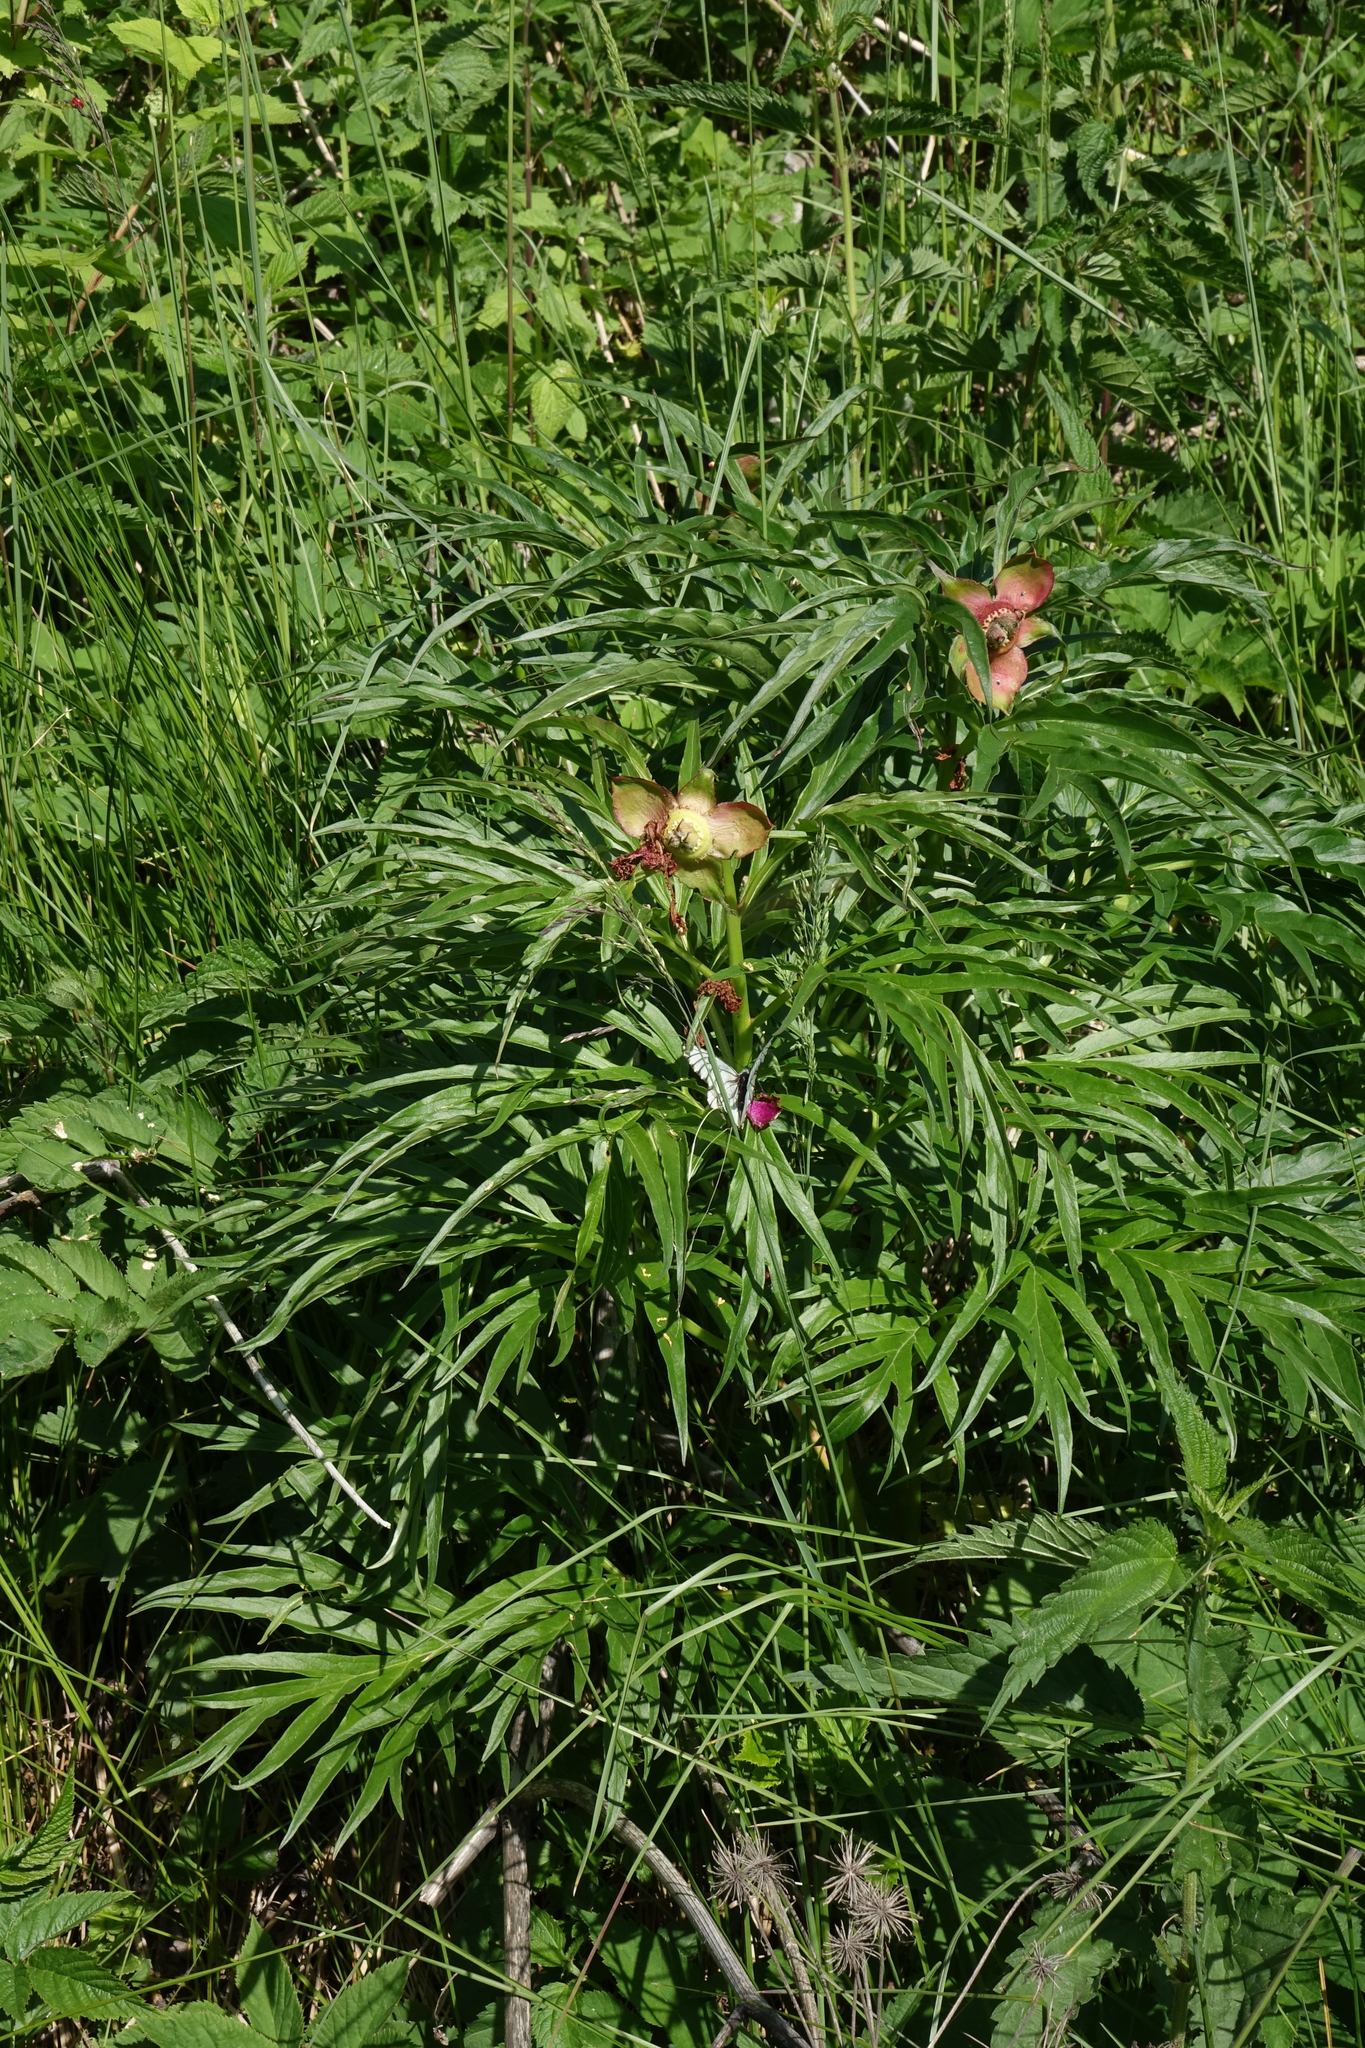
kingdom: Plantae
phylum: Tracheophyta
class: Magnoliopsida
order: Saxifragales
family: Paeoniaceae
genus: Paeonia
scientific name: Paeonia anomala
